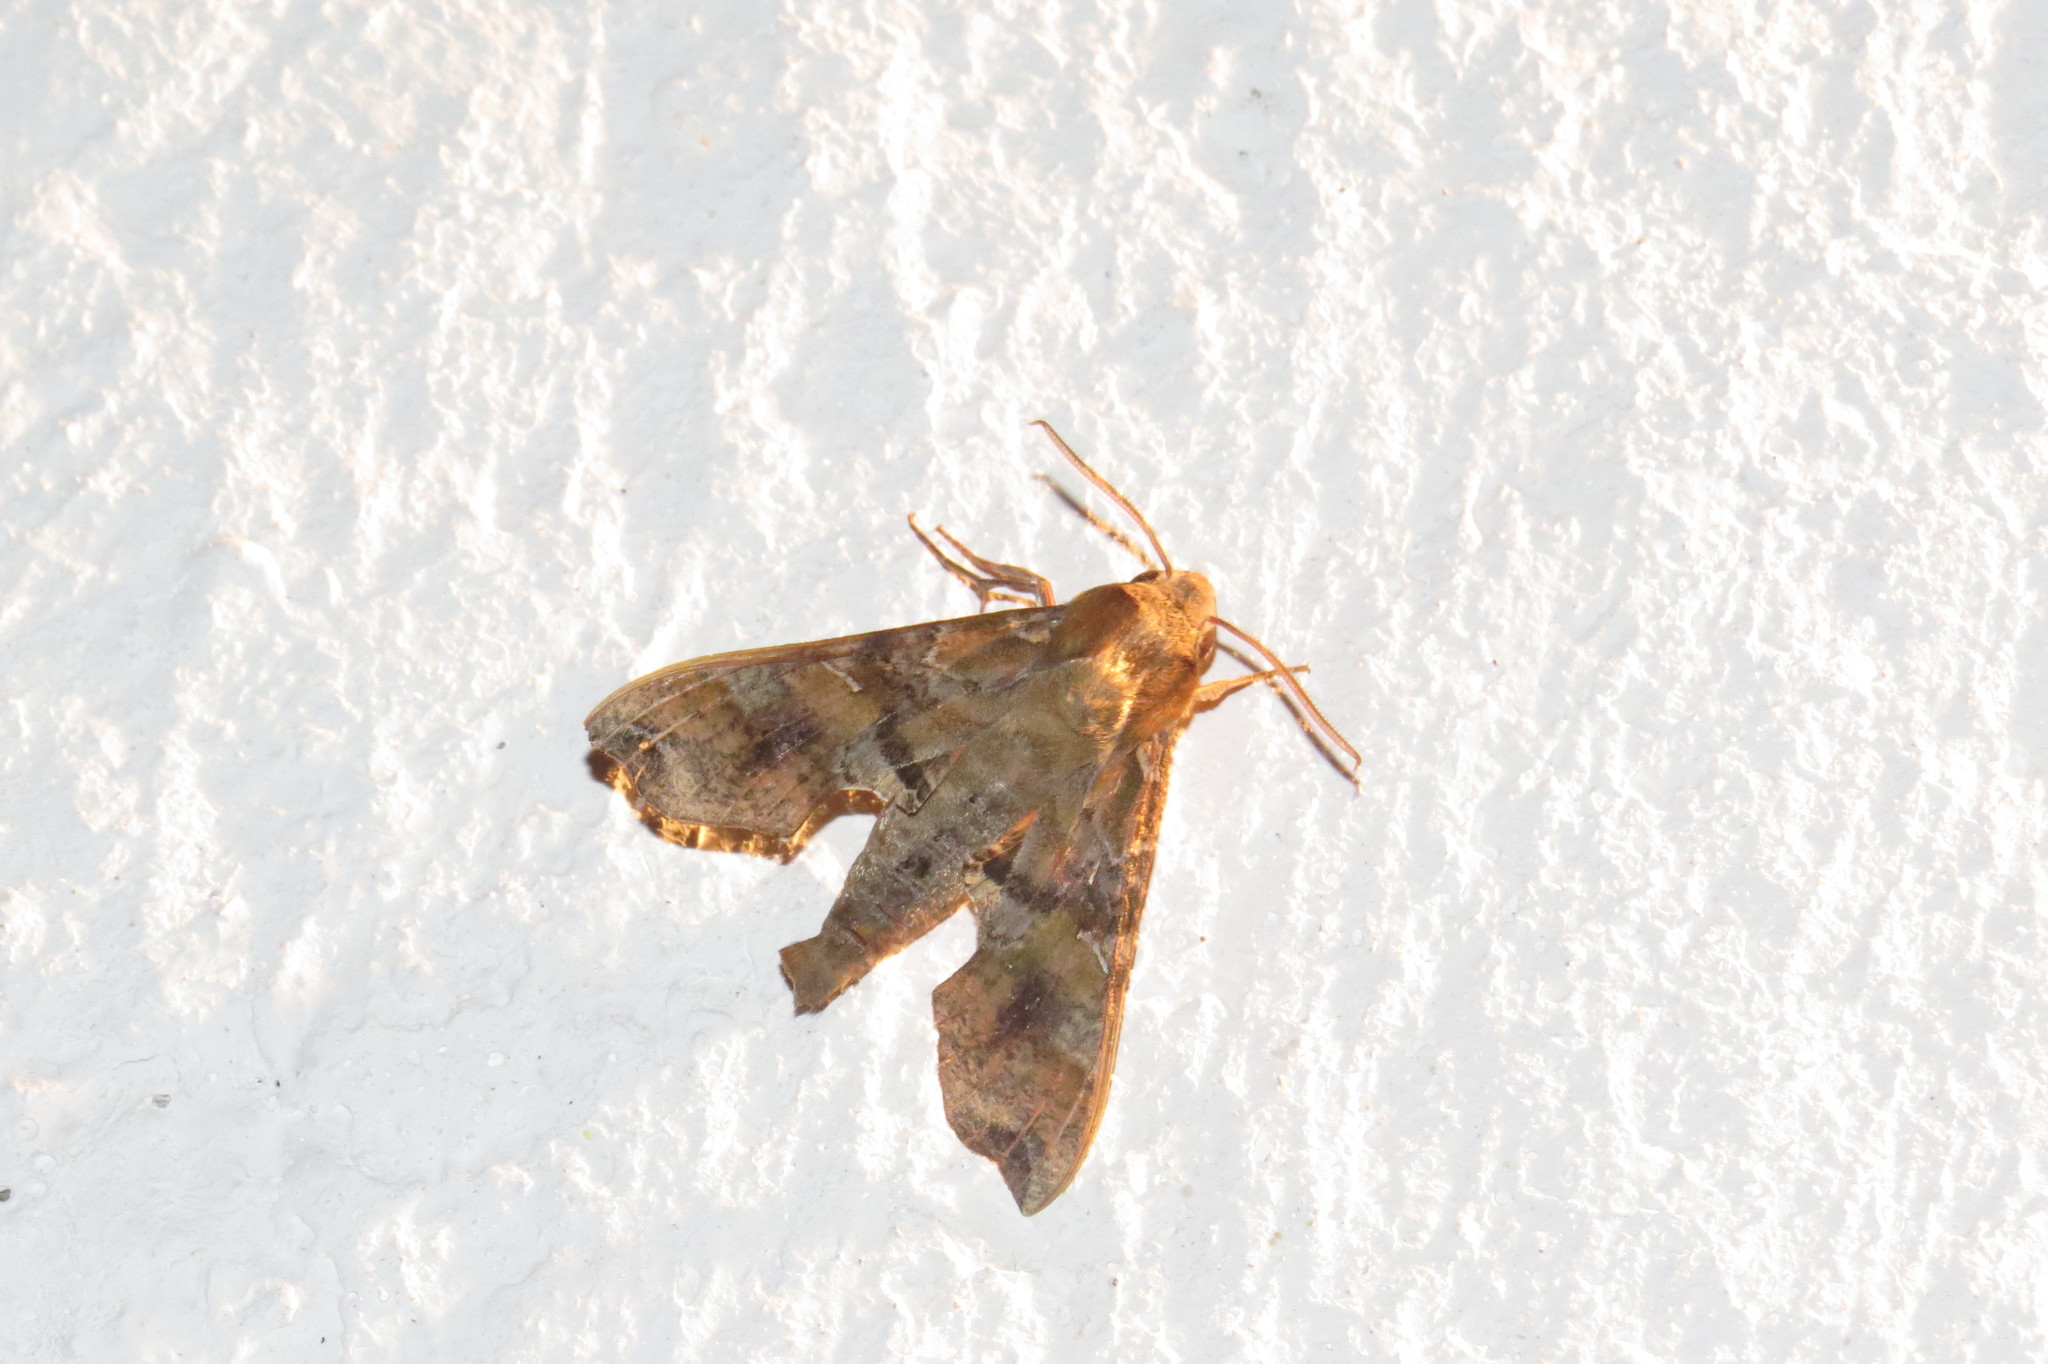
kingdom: Animalia
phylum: Arthropoda
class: Insecta
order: Lepidoptera
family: Sphingidae
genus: Callionima
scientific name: Callionima grisescens
